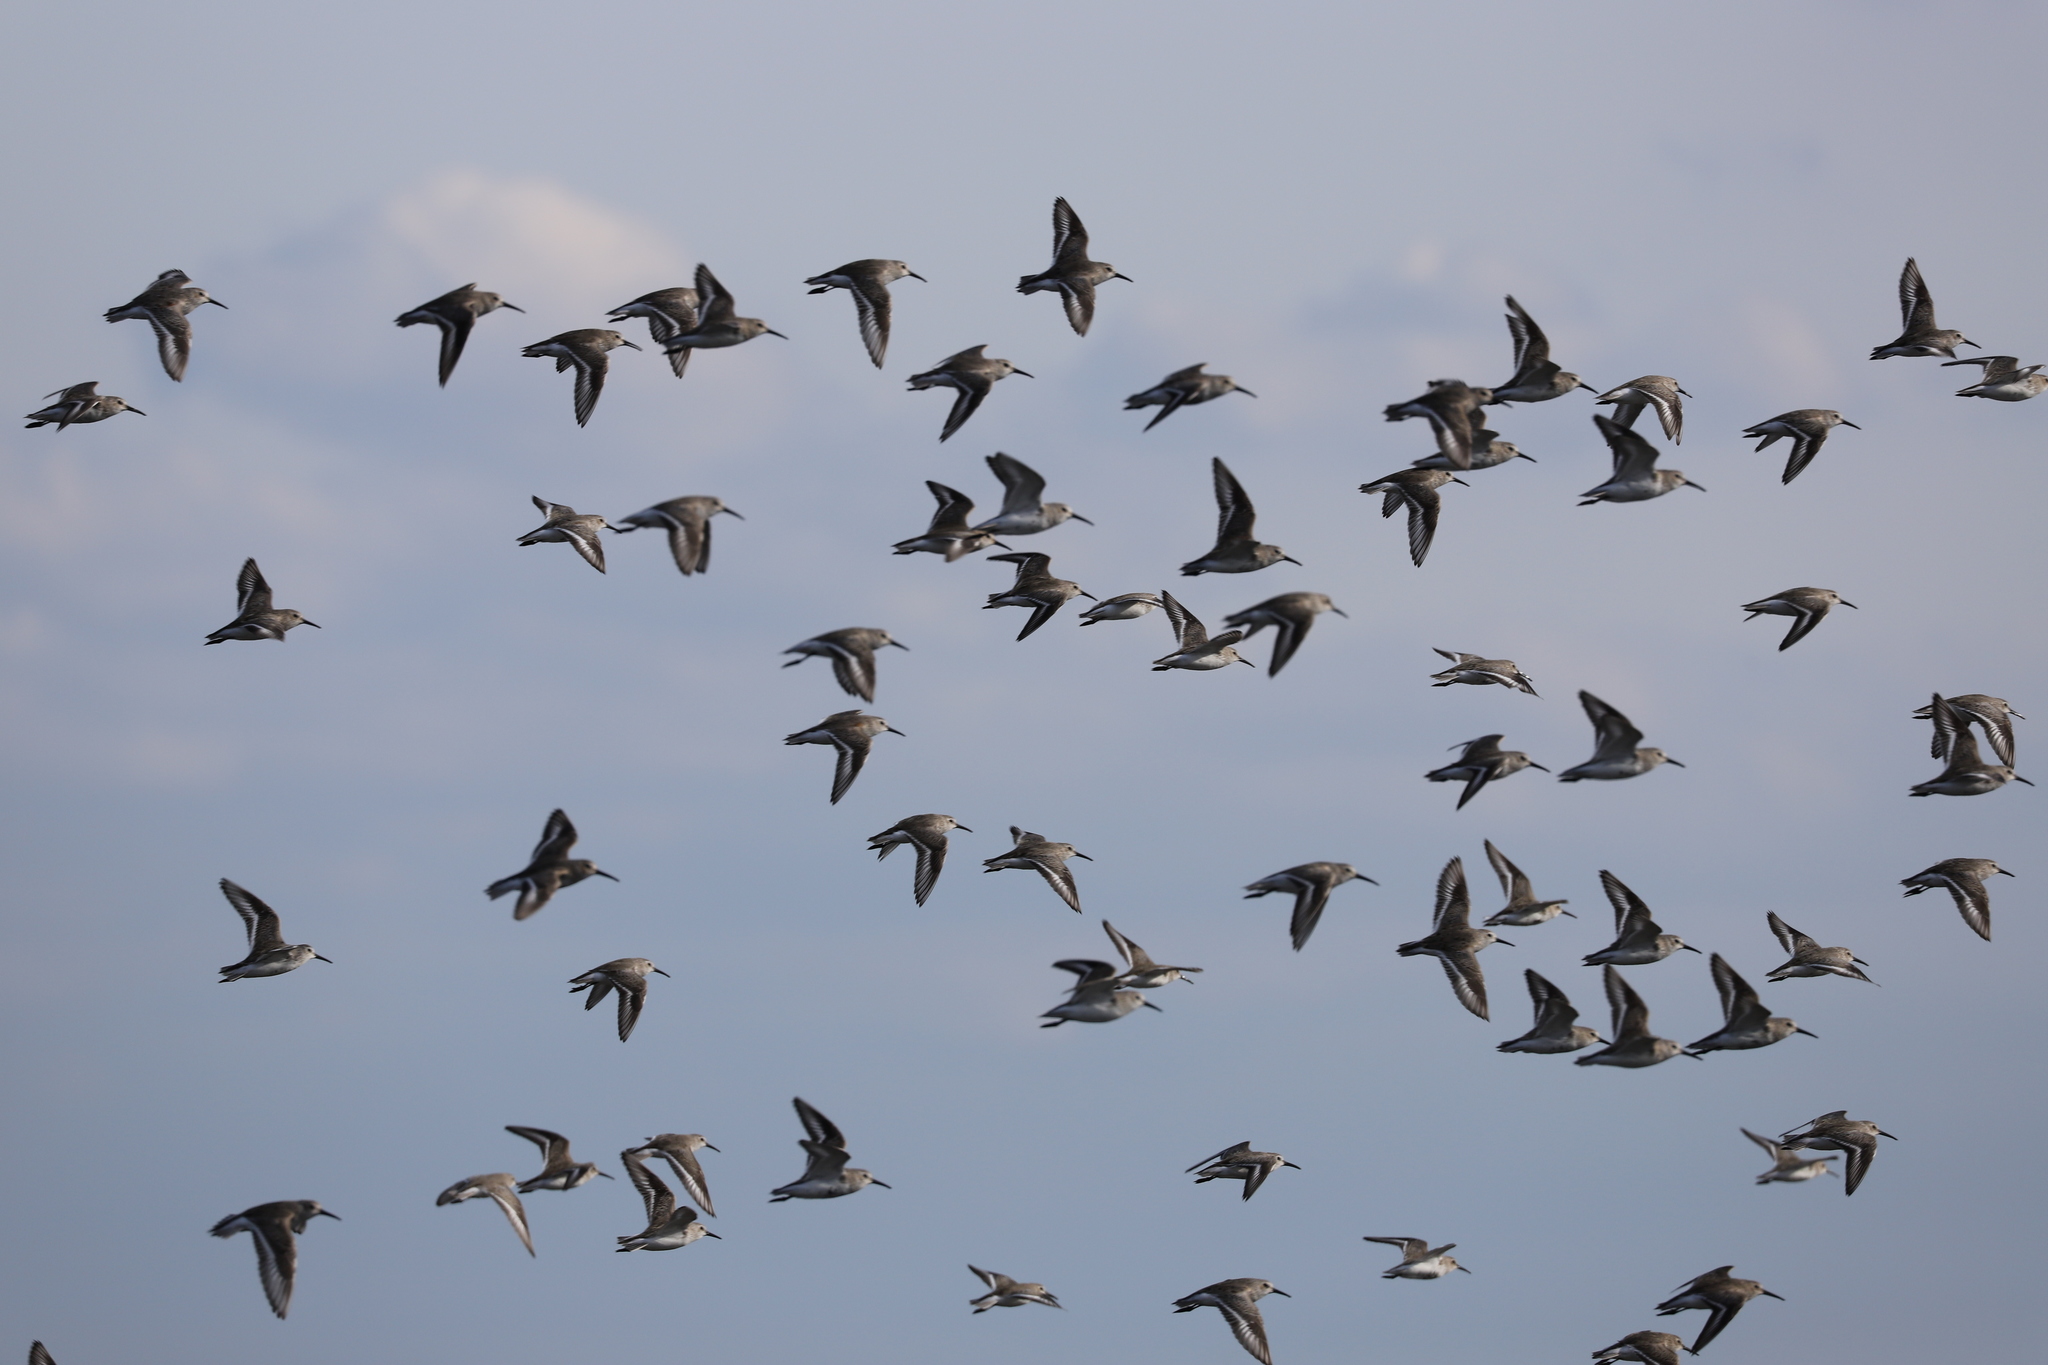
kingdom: Animalia
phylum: Chordata
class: Aves
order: Charadriiformes
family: Scolopacidae
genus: Calidris
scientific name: Calidris alpina
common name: Dunlin
